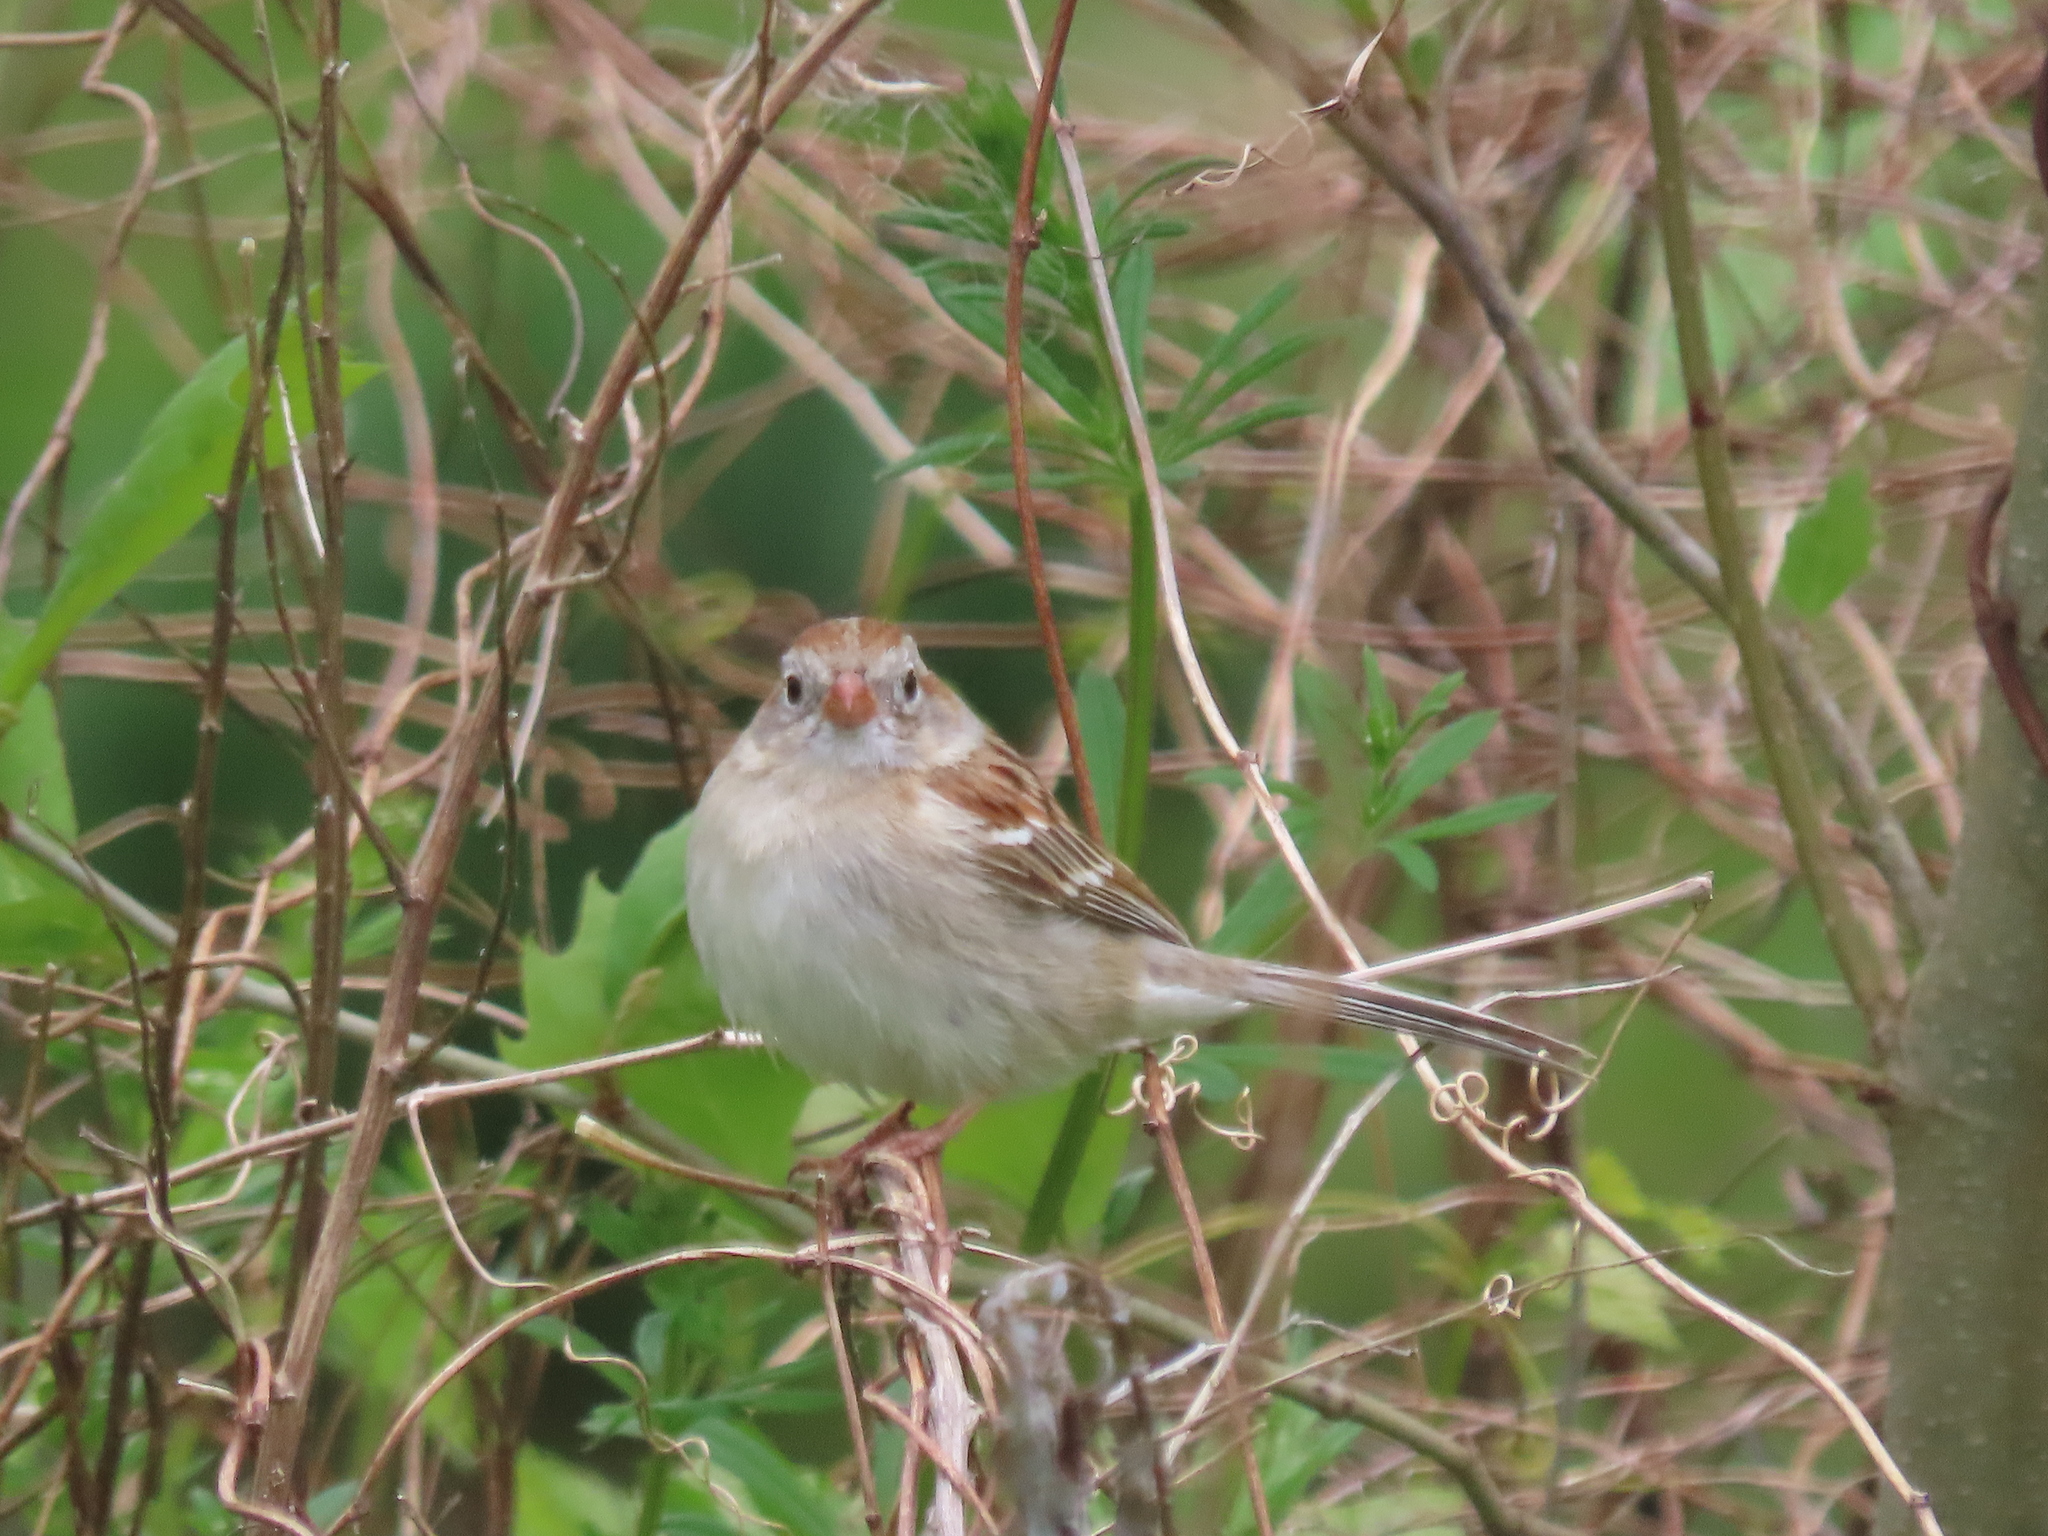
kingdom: Animalia
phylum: Chordata
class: Aves
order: Passeriformes
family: Passerellidae
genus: Spizella
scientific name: Spizella pusilla
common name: Field sparrow
